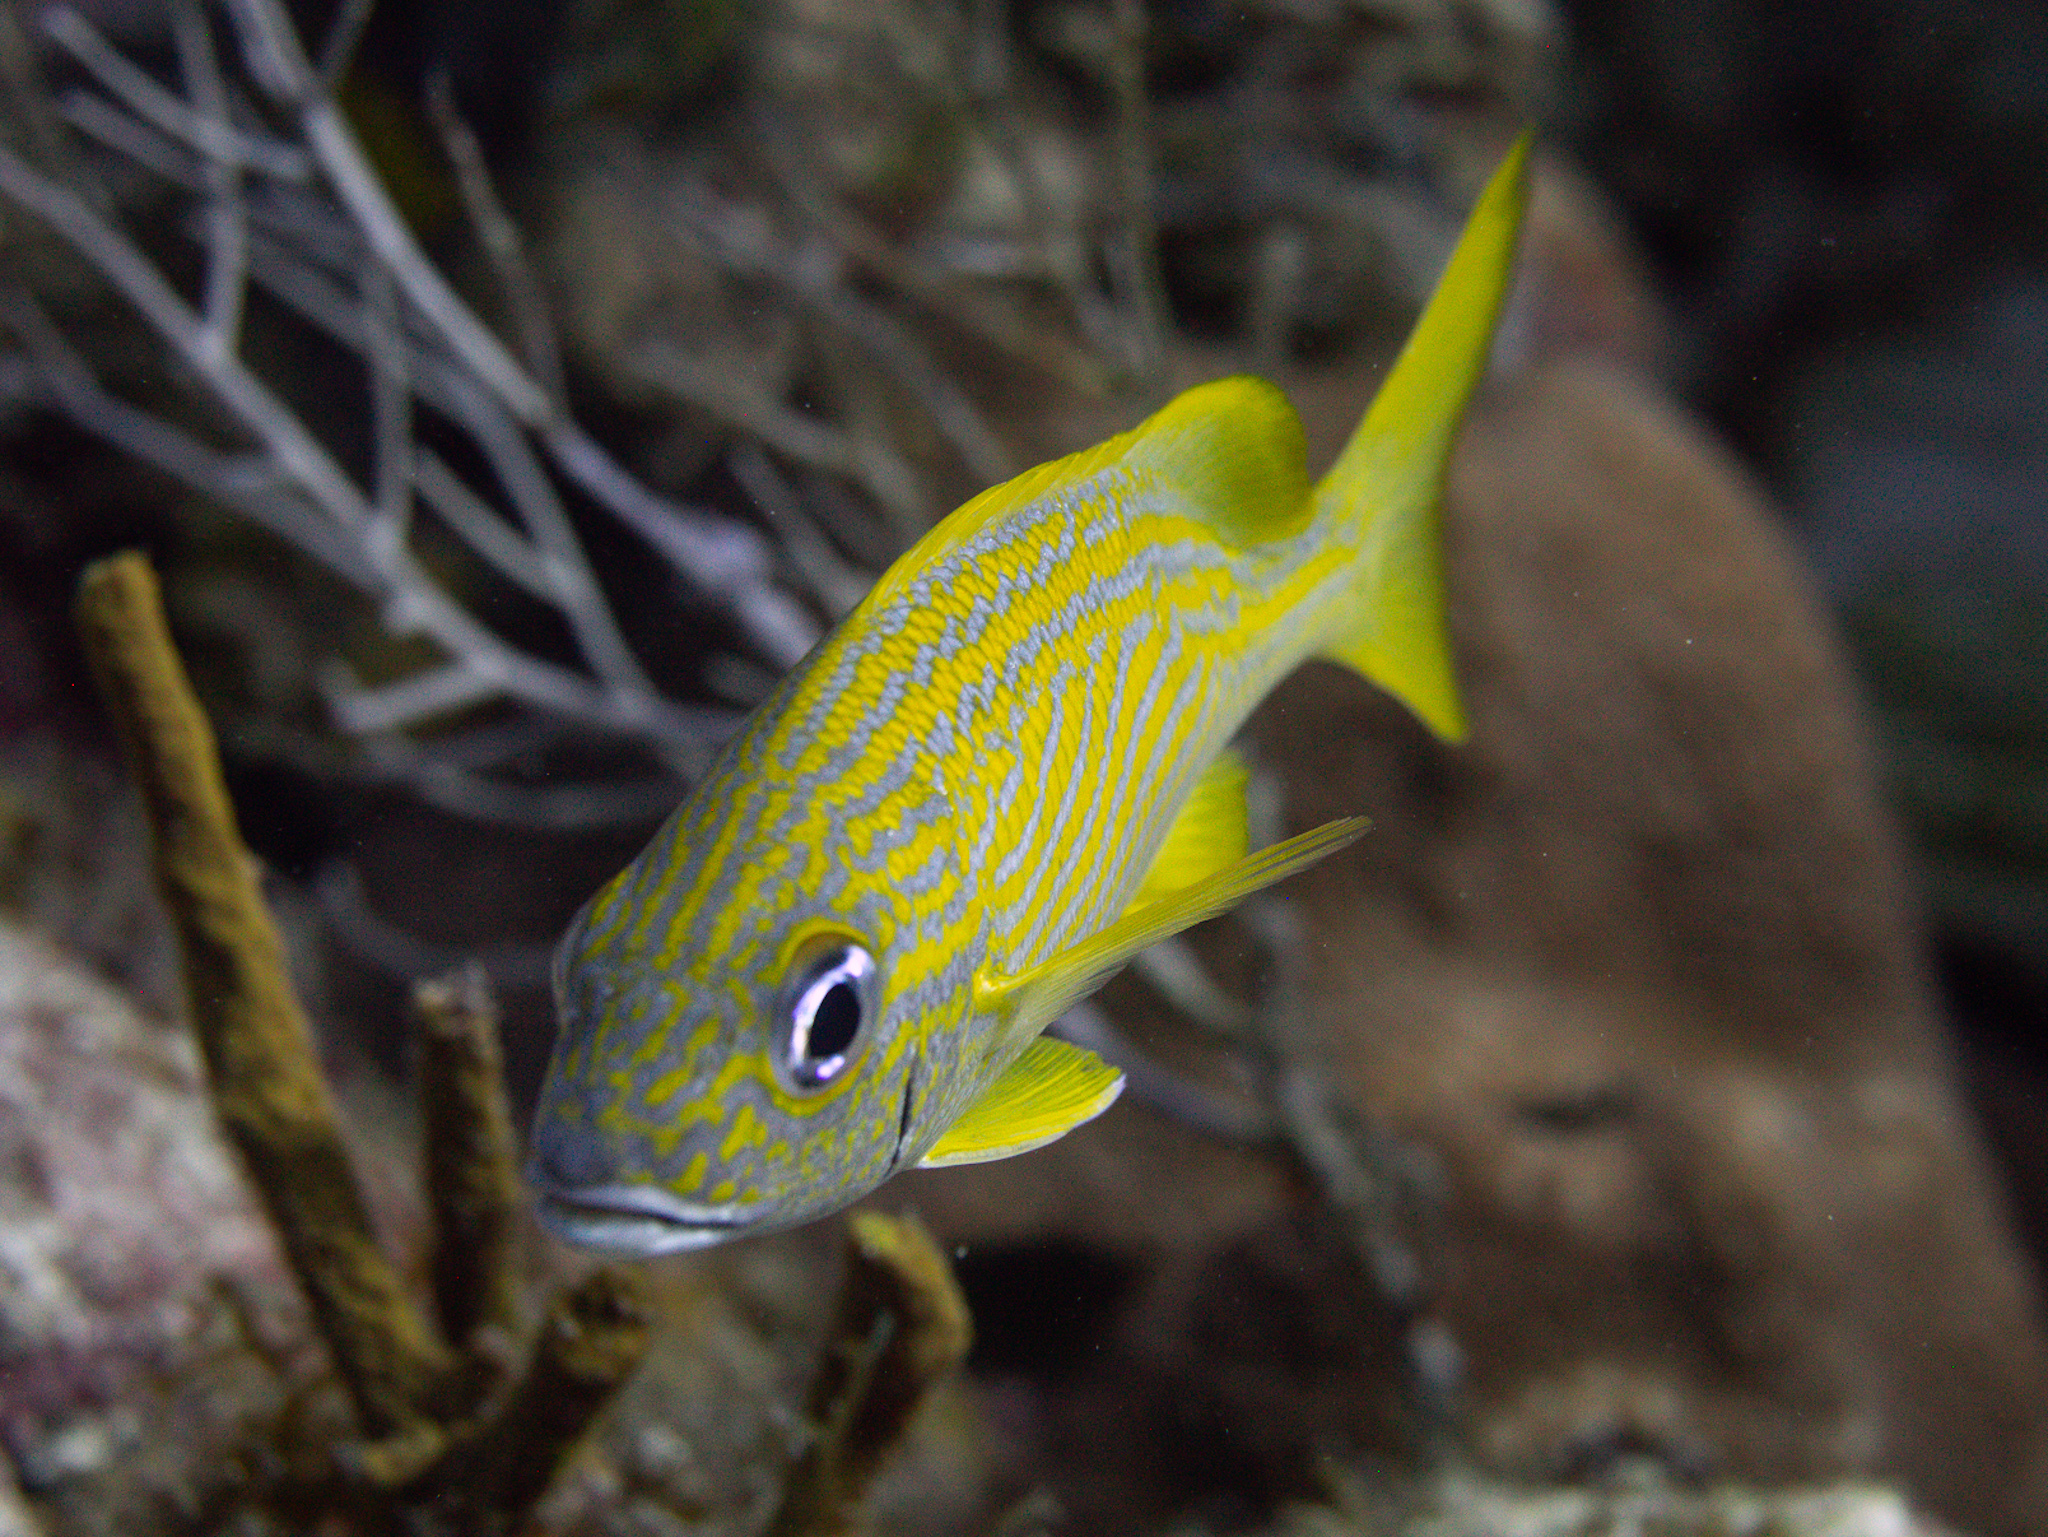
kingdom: Animalia
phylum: Chordata
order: Perciformes
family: Haemulidae
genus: Haemulon
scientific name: Haemulon flavolineatum
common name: French grunt
